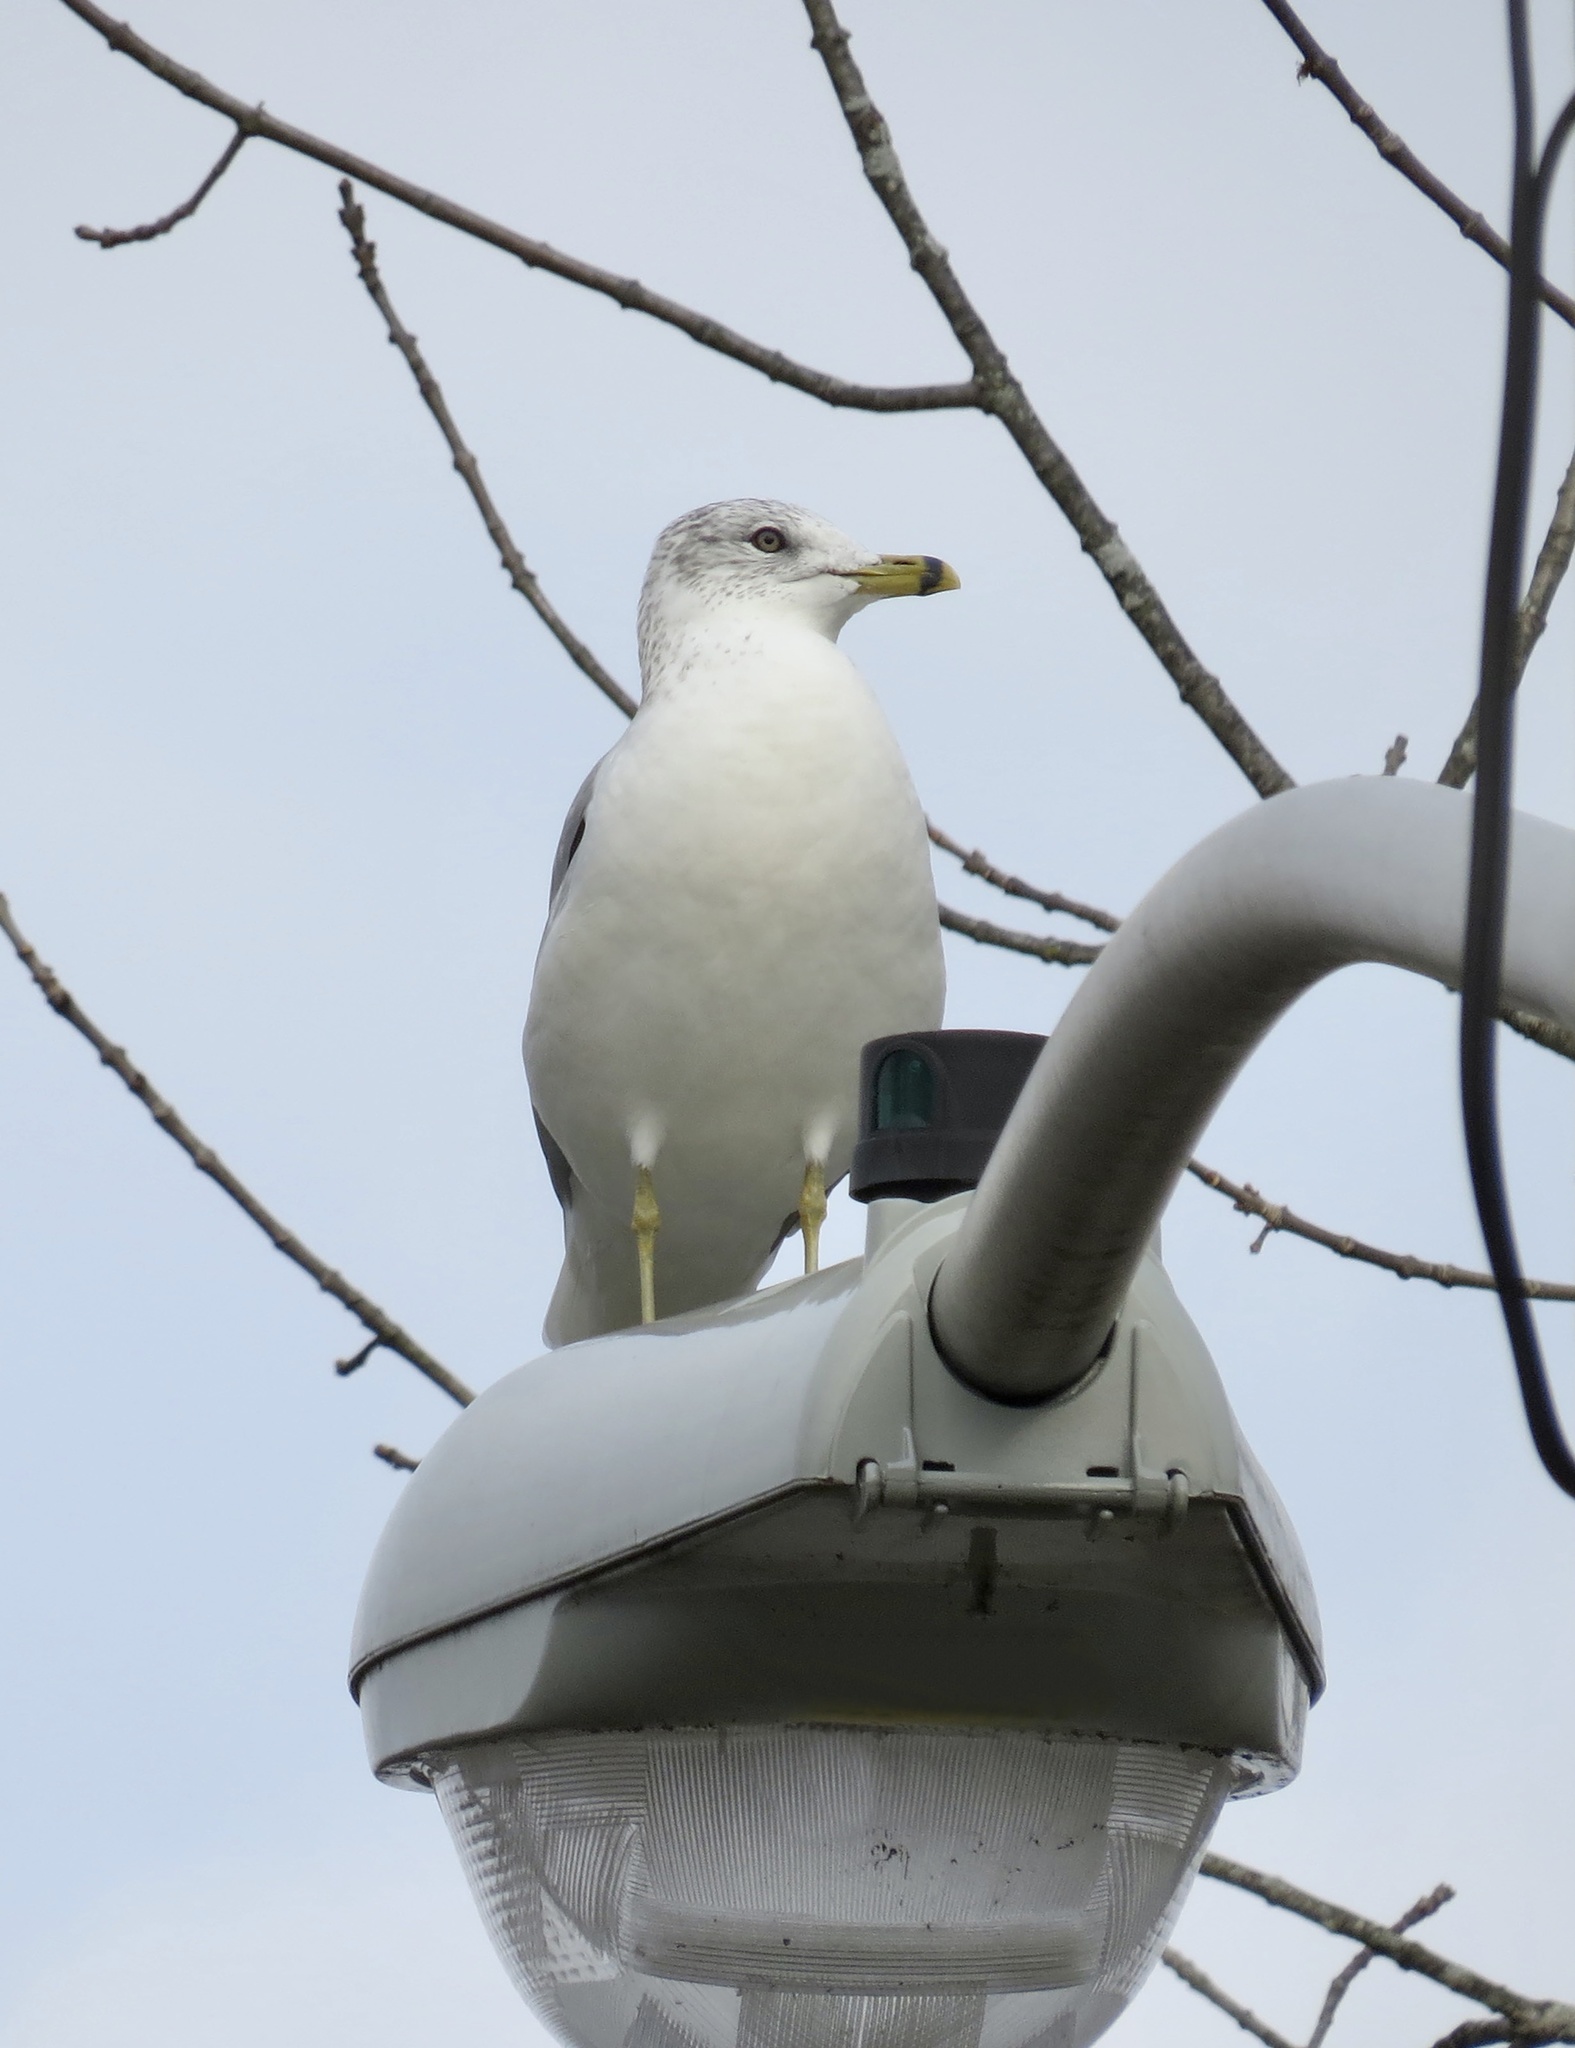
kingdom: Animalia
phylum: Chordata
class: Aves
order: Charadriiformes
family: Laridae
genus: Larus
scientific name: Larus delawarensis
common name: Ring-billed gull
